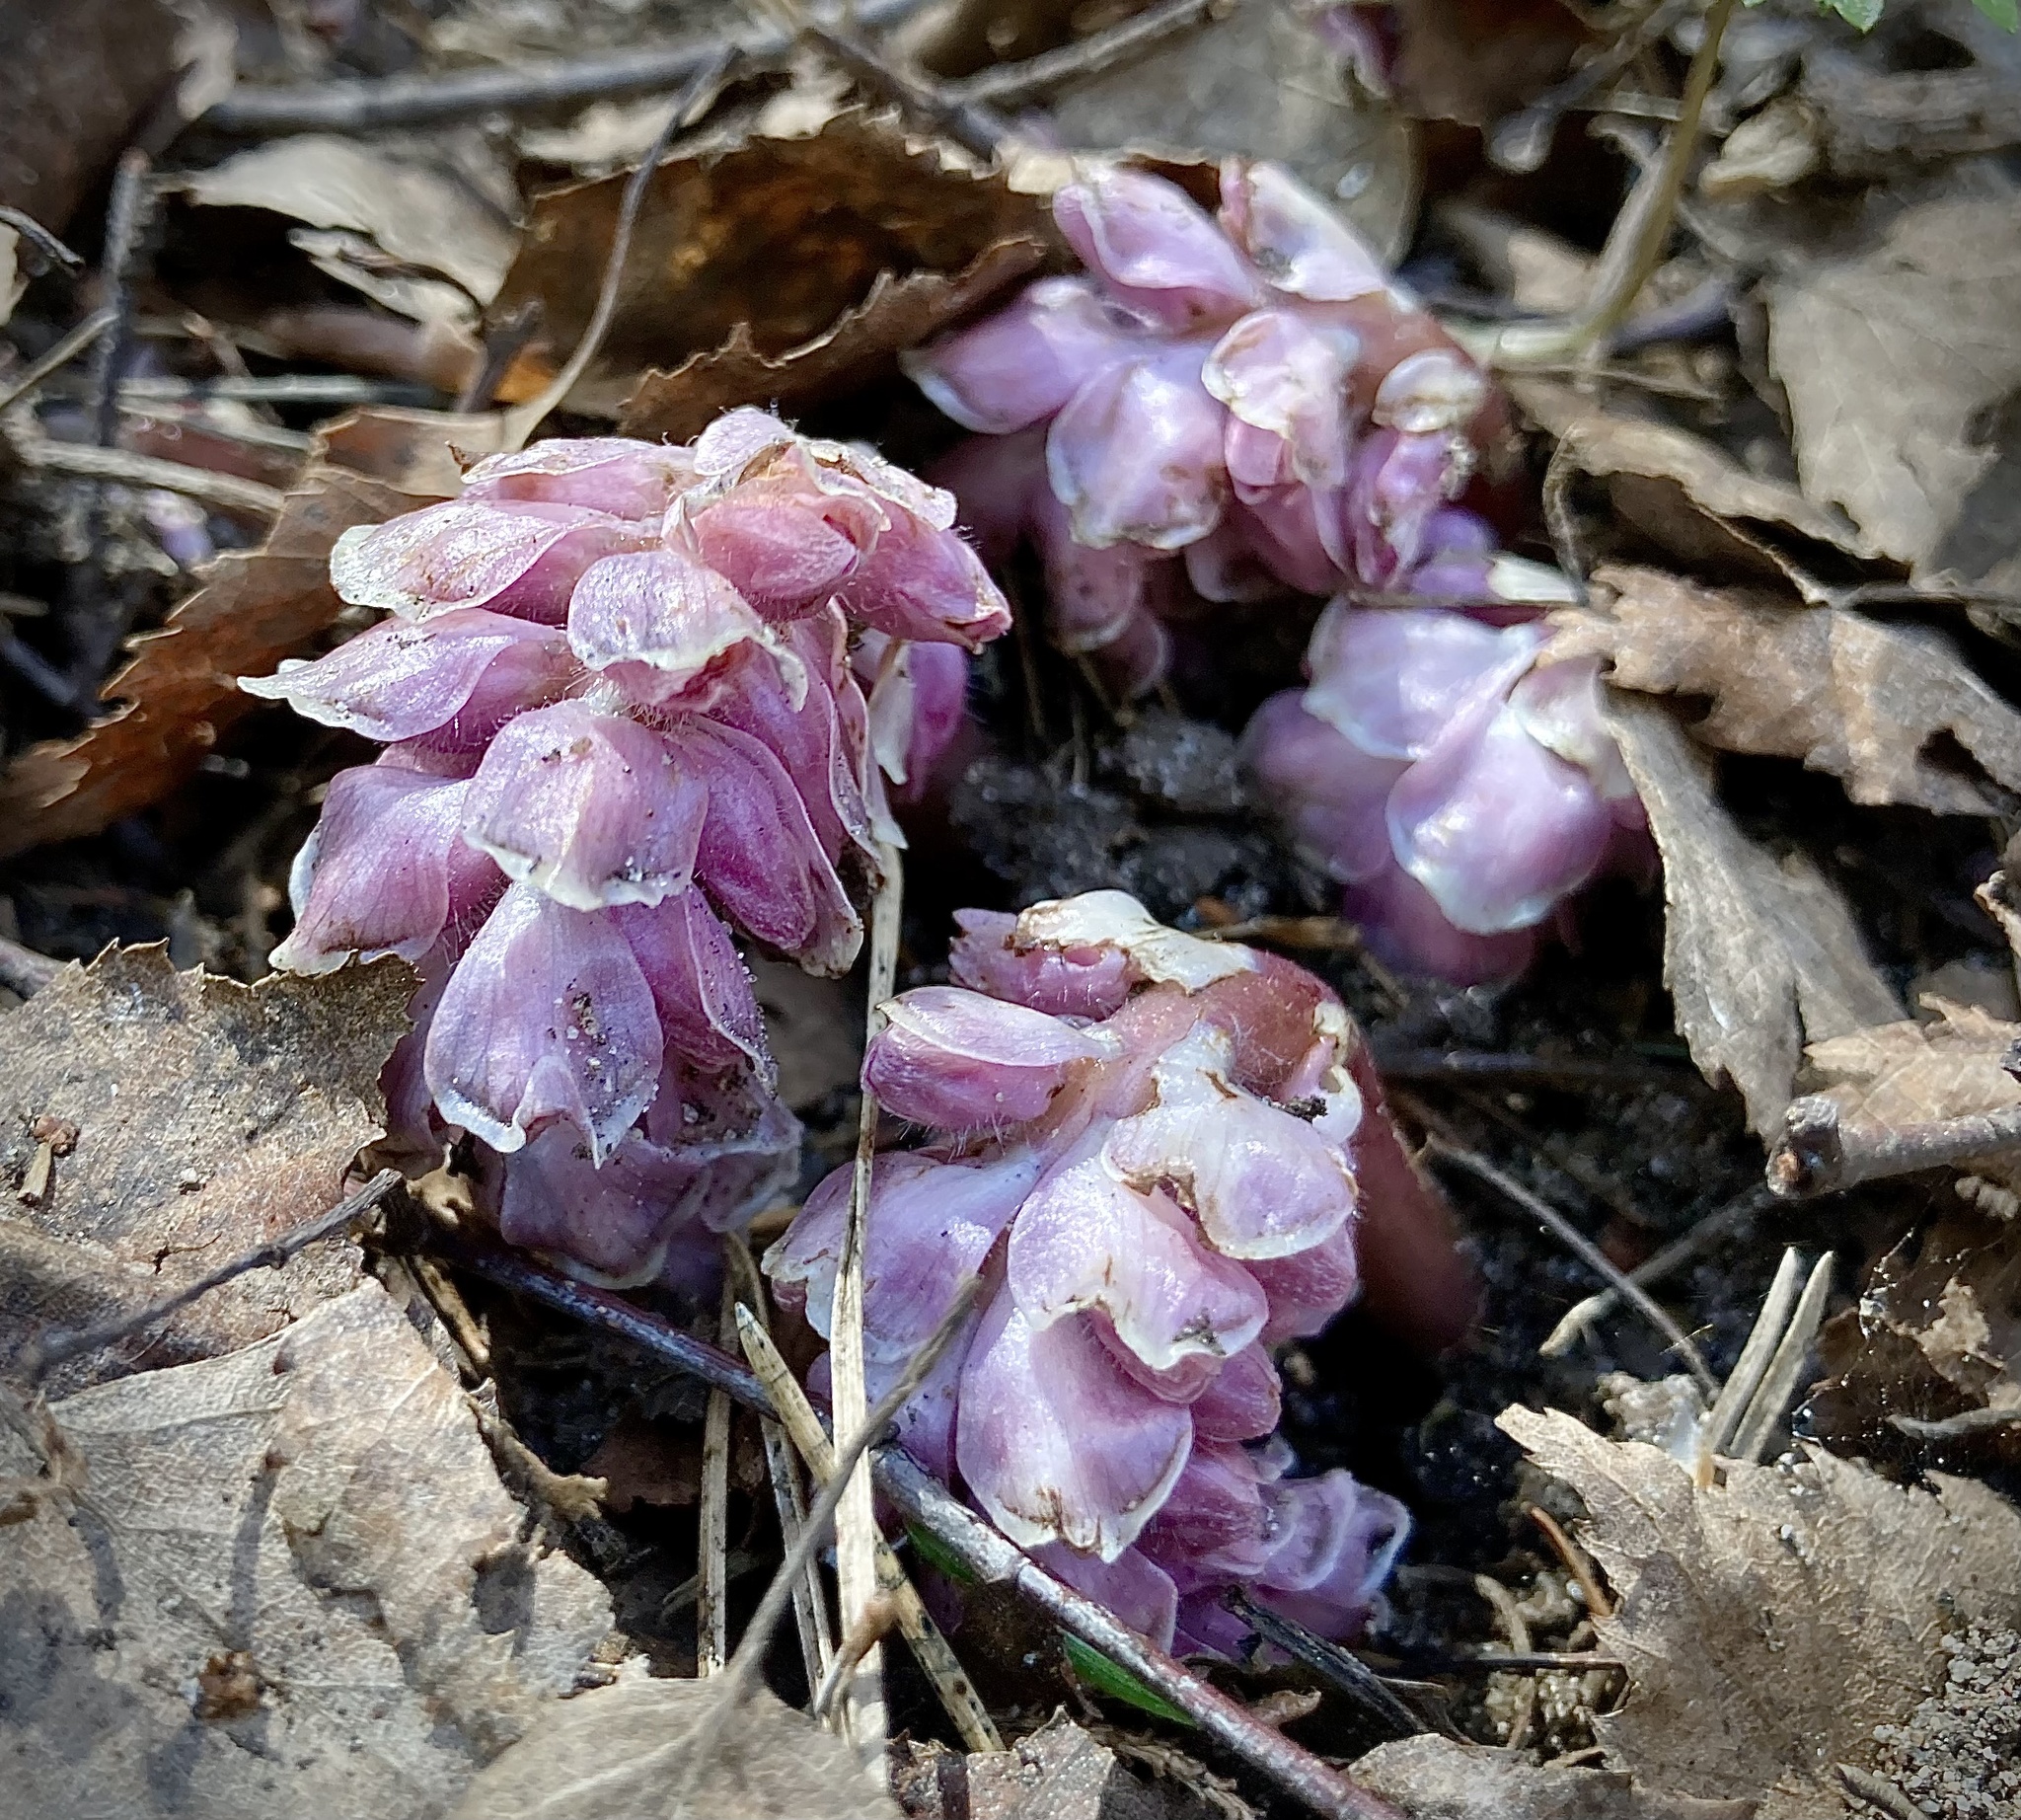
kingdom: Plantae
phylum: Tracheophyta
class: Magnoliopsida
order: Lamiales
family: Orobanchaceae
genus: Lathraea
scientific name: Lathraea squamaria
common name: Toothwort
